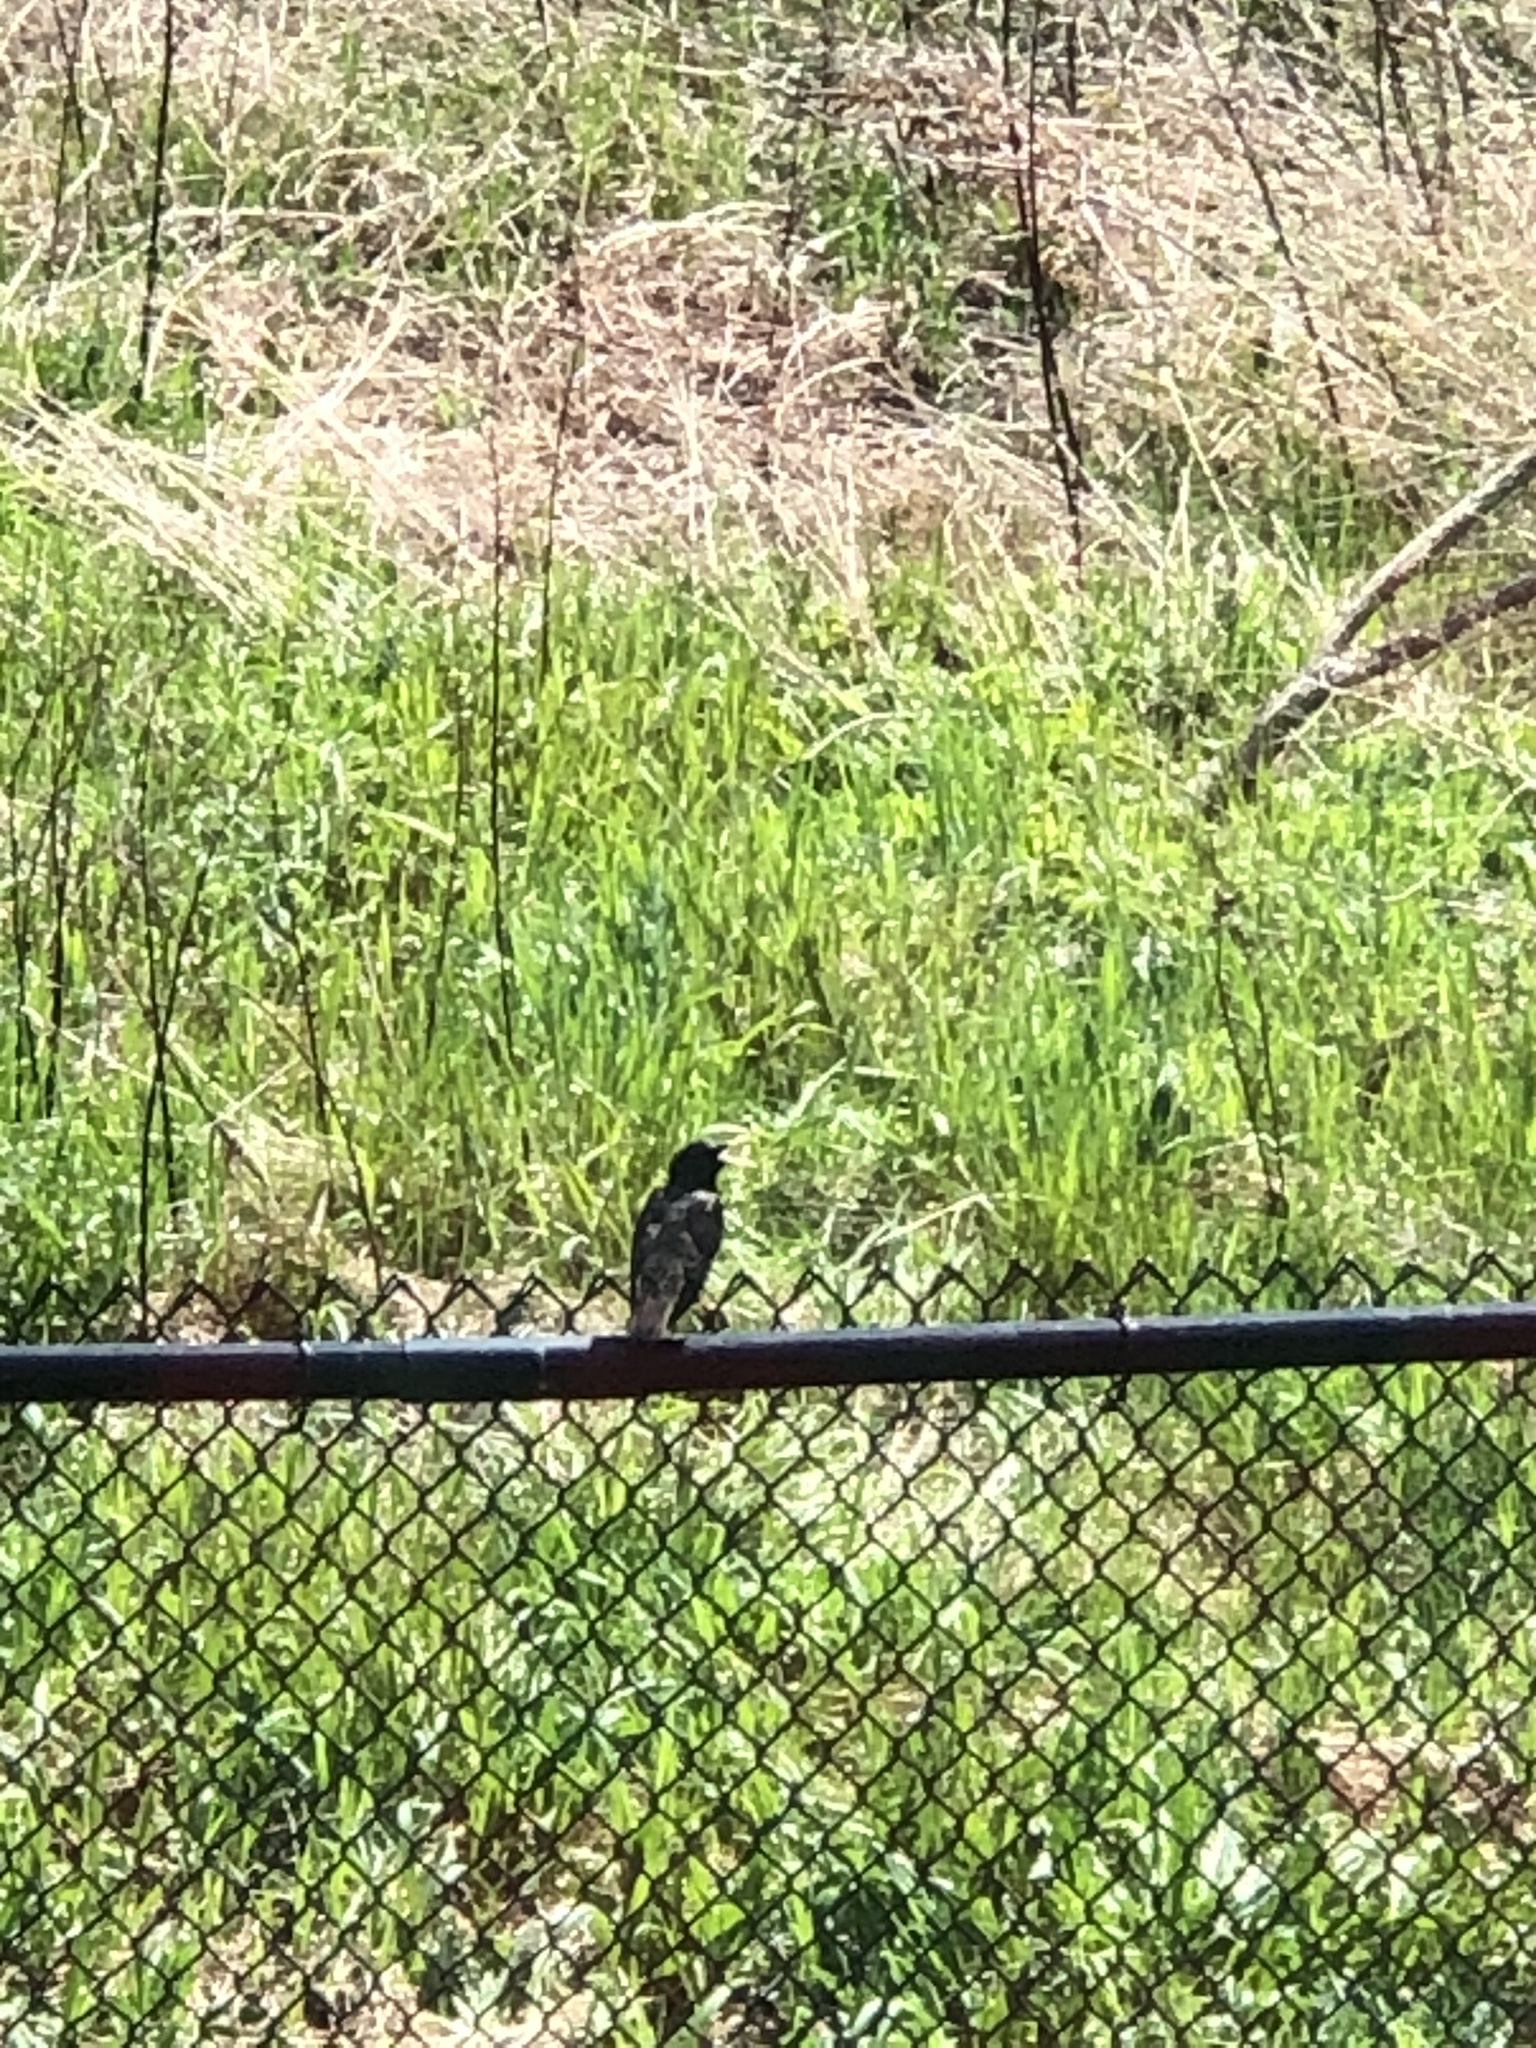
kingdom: Animalia
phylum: Chordata
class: Aves
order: Passeriformes
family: Sturnidae
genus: Sturnus
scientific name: Sturnus vulgaris
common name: Common starling
